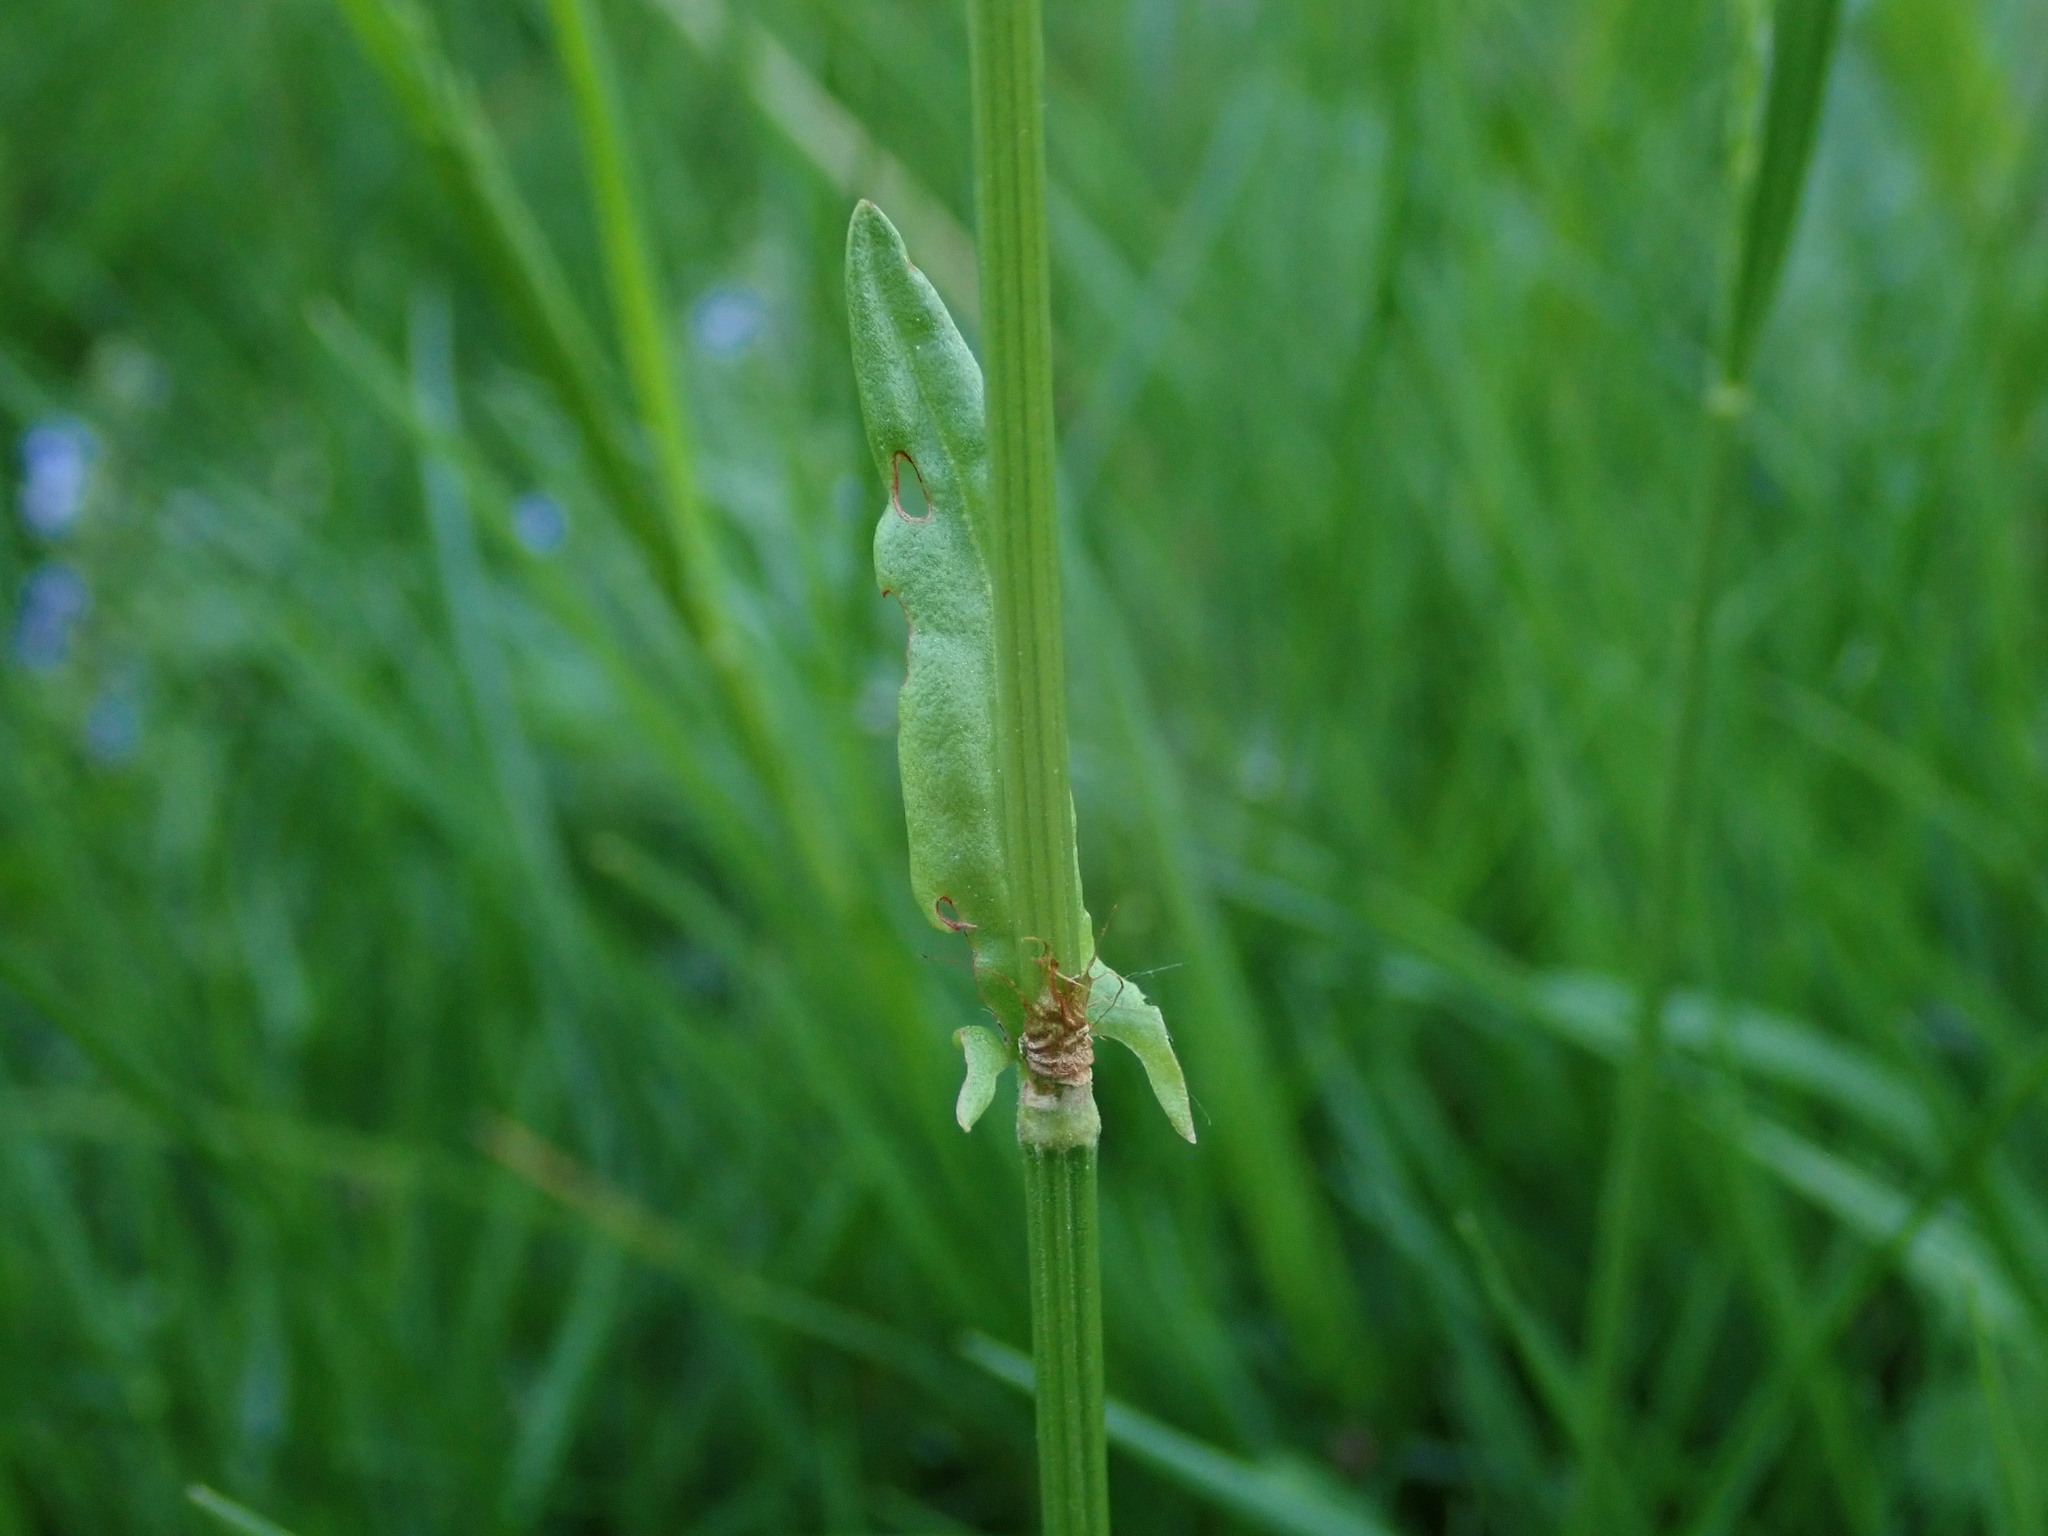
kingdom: Plantae
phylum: Tracheophyta
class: Magnoliopsida
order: Caryophyllales
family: Polygonaceae
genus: Rumex
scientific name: Rumex acetosa
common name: Garden sorrel
